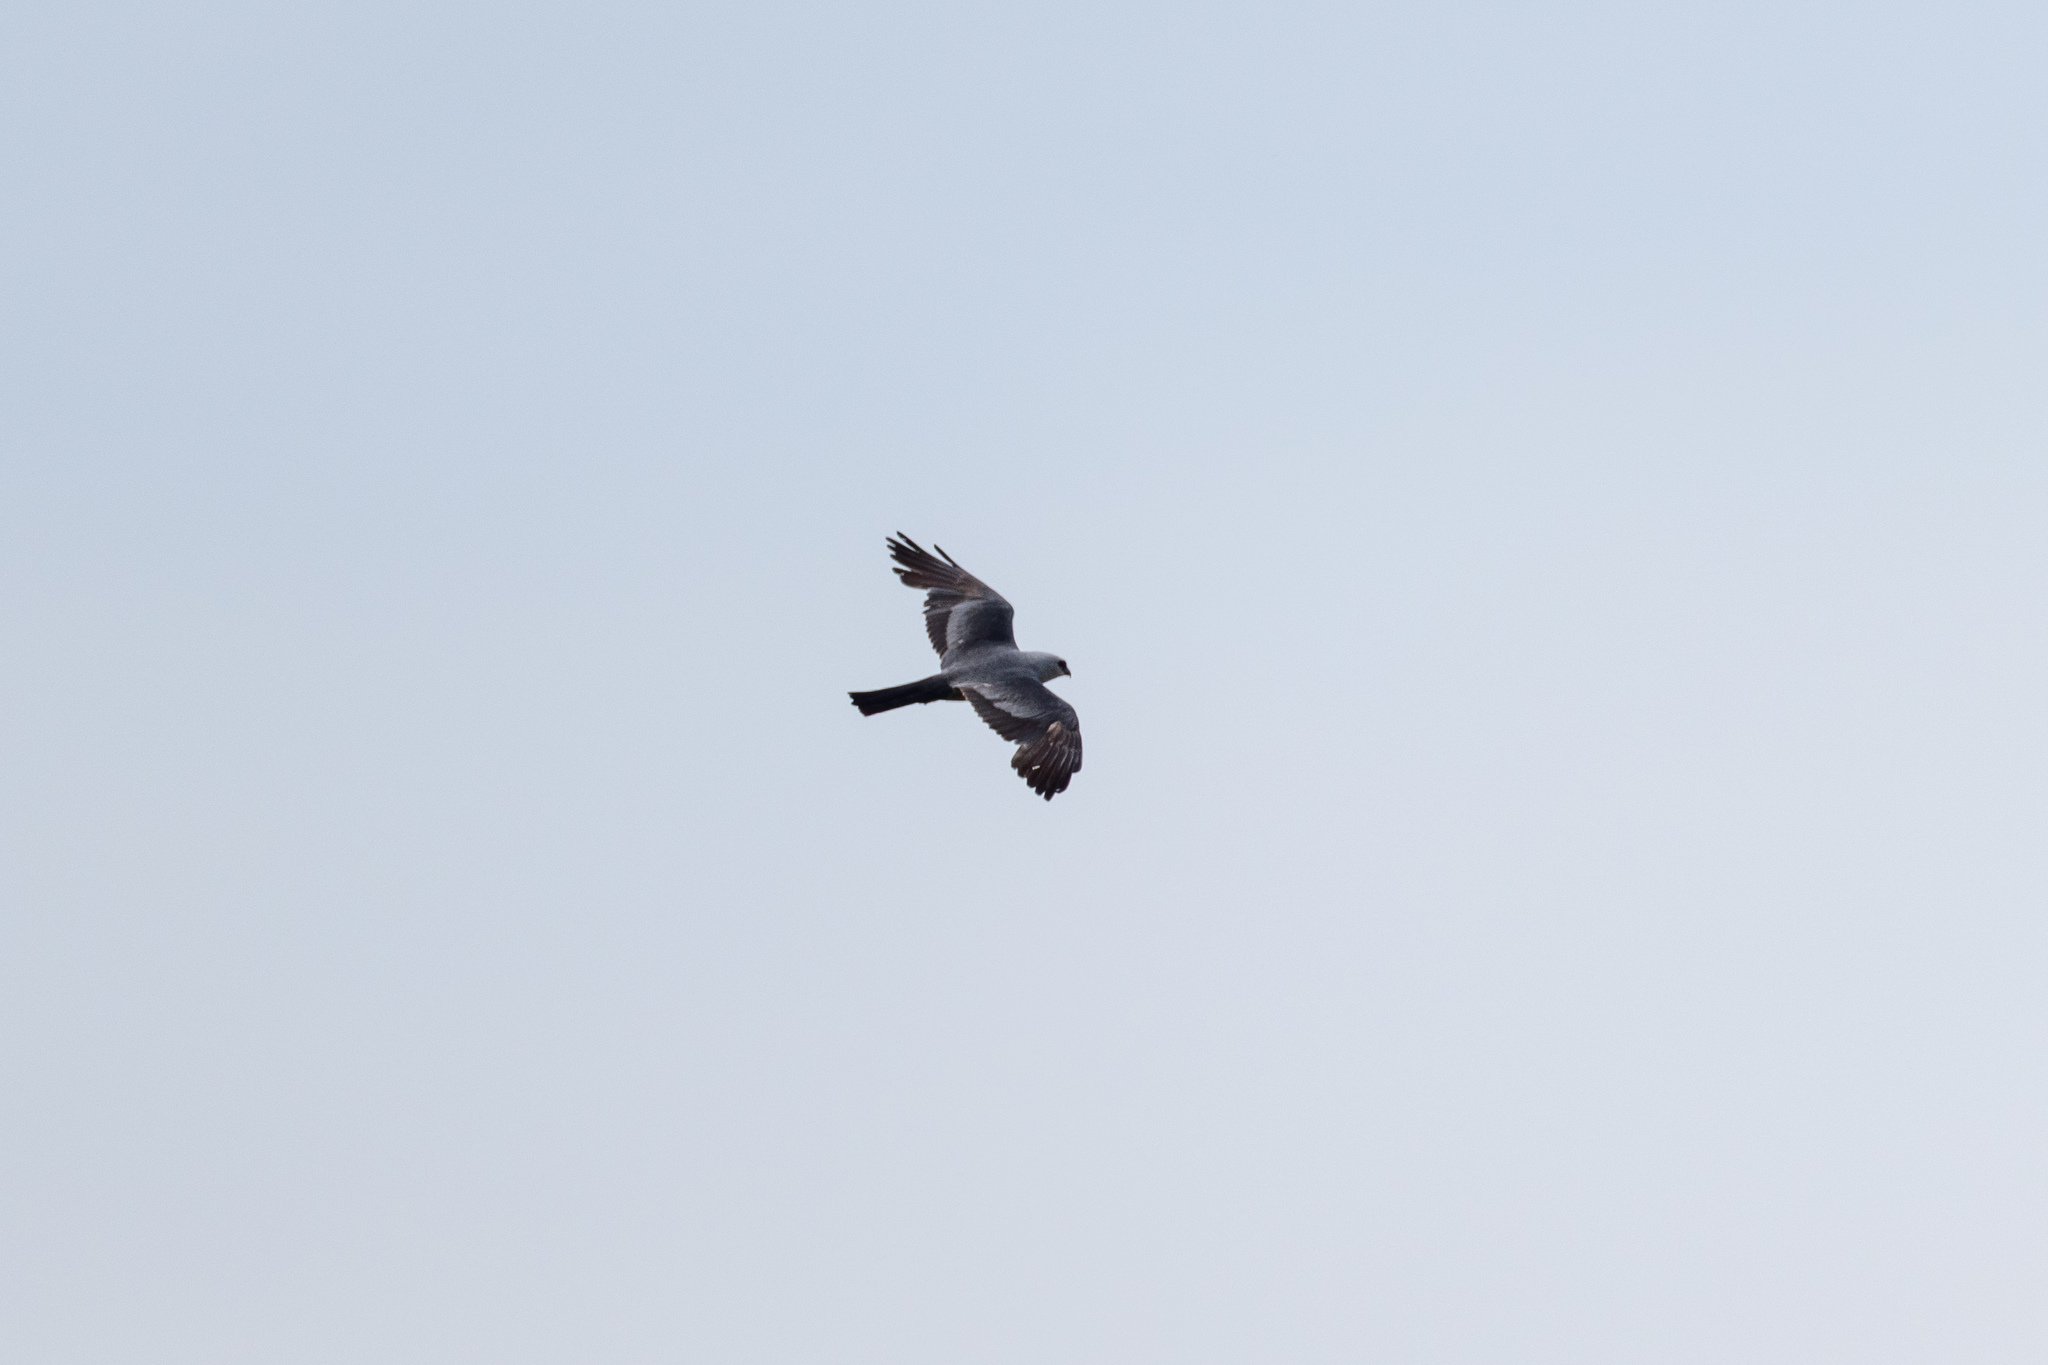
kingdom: Animalia
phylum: Chordata
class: Aves
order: Accipitriformes
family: Accipitridae
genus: Ictinia
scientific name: Ictinia mississippiensis
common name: Mississippi kite
